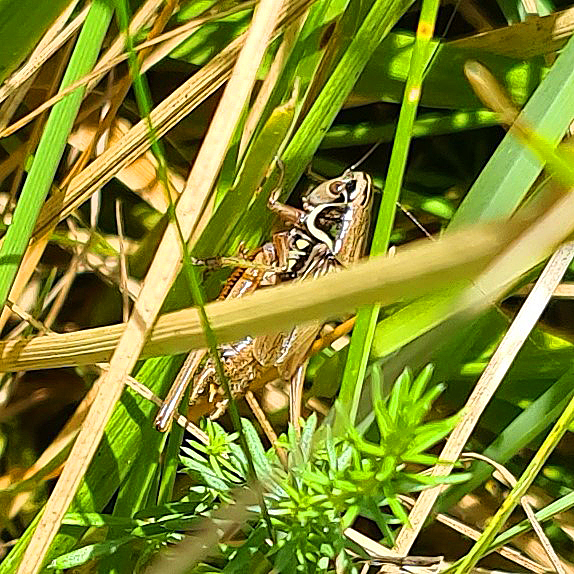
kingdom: Animalia
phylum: Arthropoda
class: Insecta
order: Orthoptera
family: Tettigoniidae
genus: Roeseliana
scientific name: Roeseliana roeselii
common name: Roesel's bush cricket
